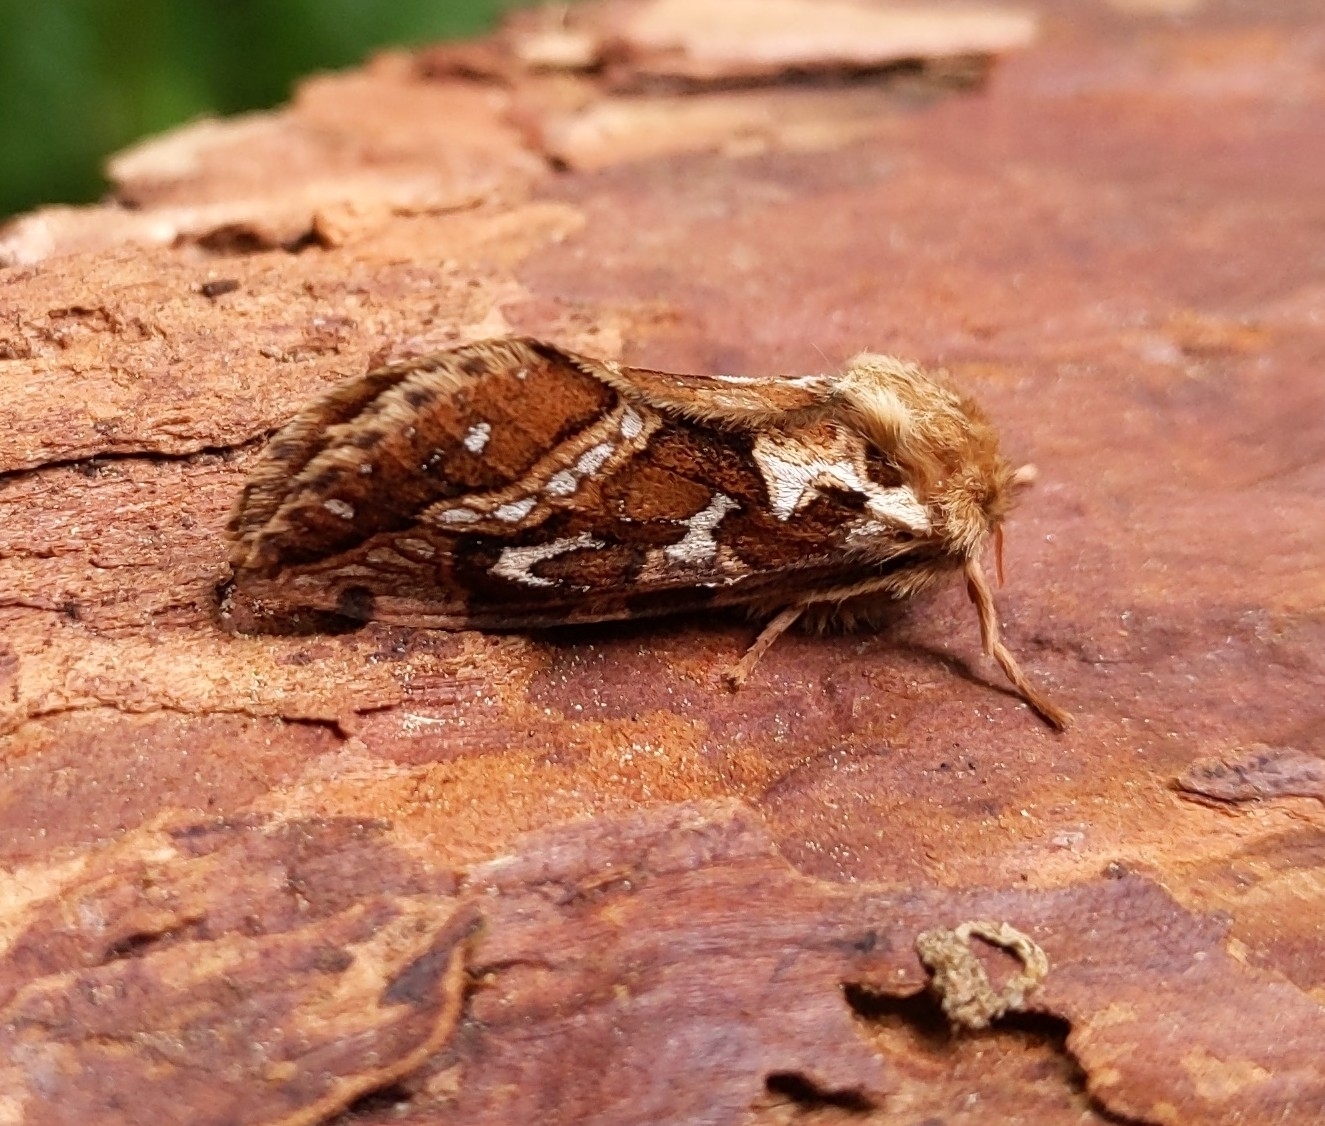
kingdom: Animalia
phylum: Arthropoda
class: Insecta
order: Lepidoptera
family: Hepialidae
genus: Korscheltellus
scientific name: Korscheltellus fusconebulosus
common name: Map-winged swift
